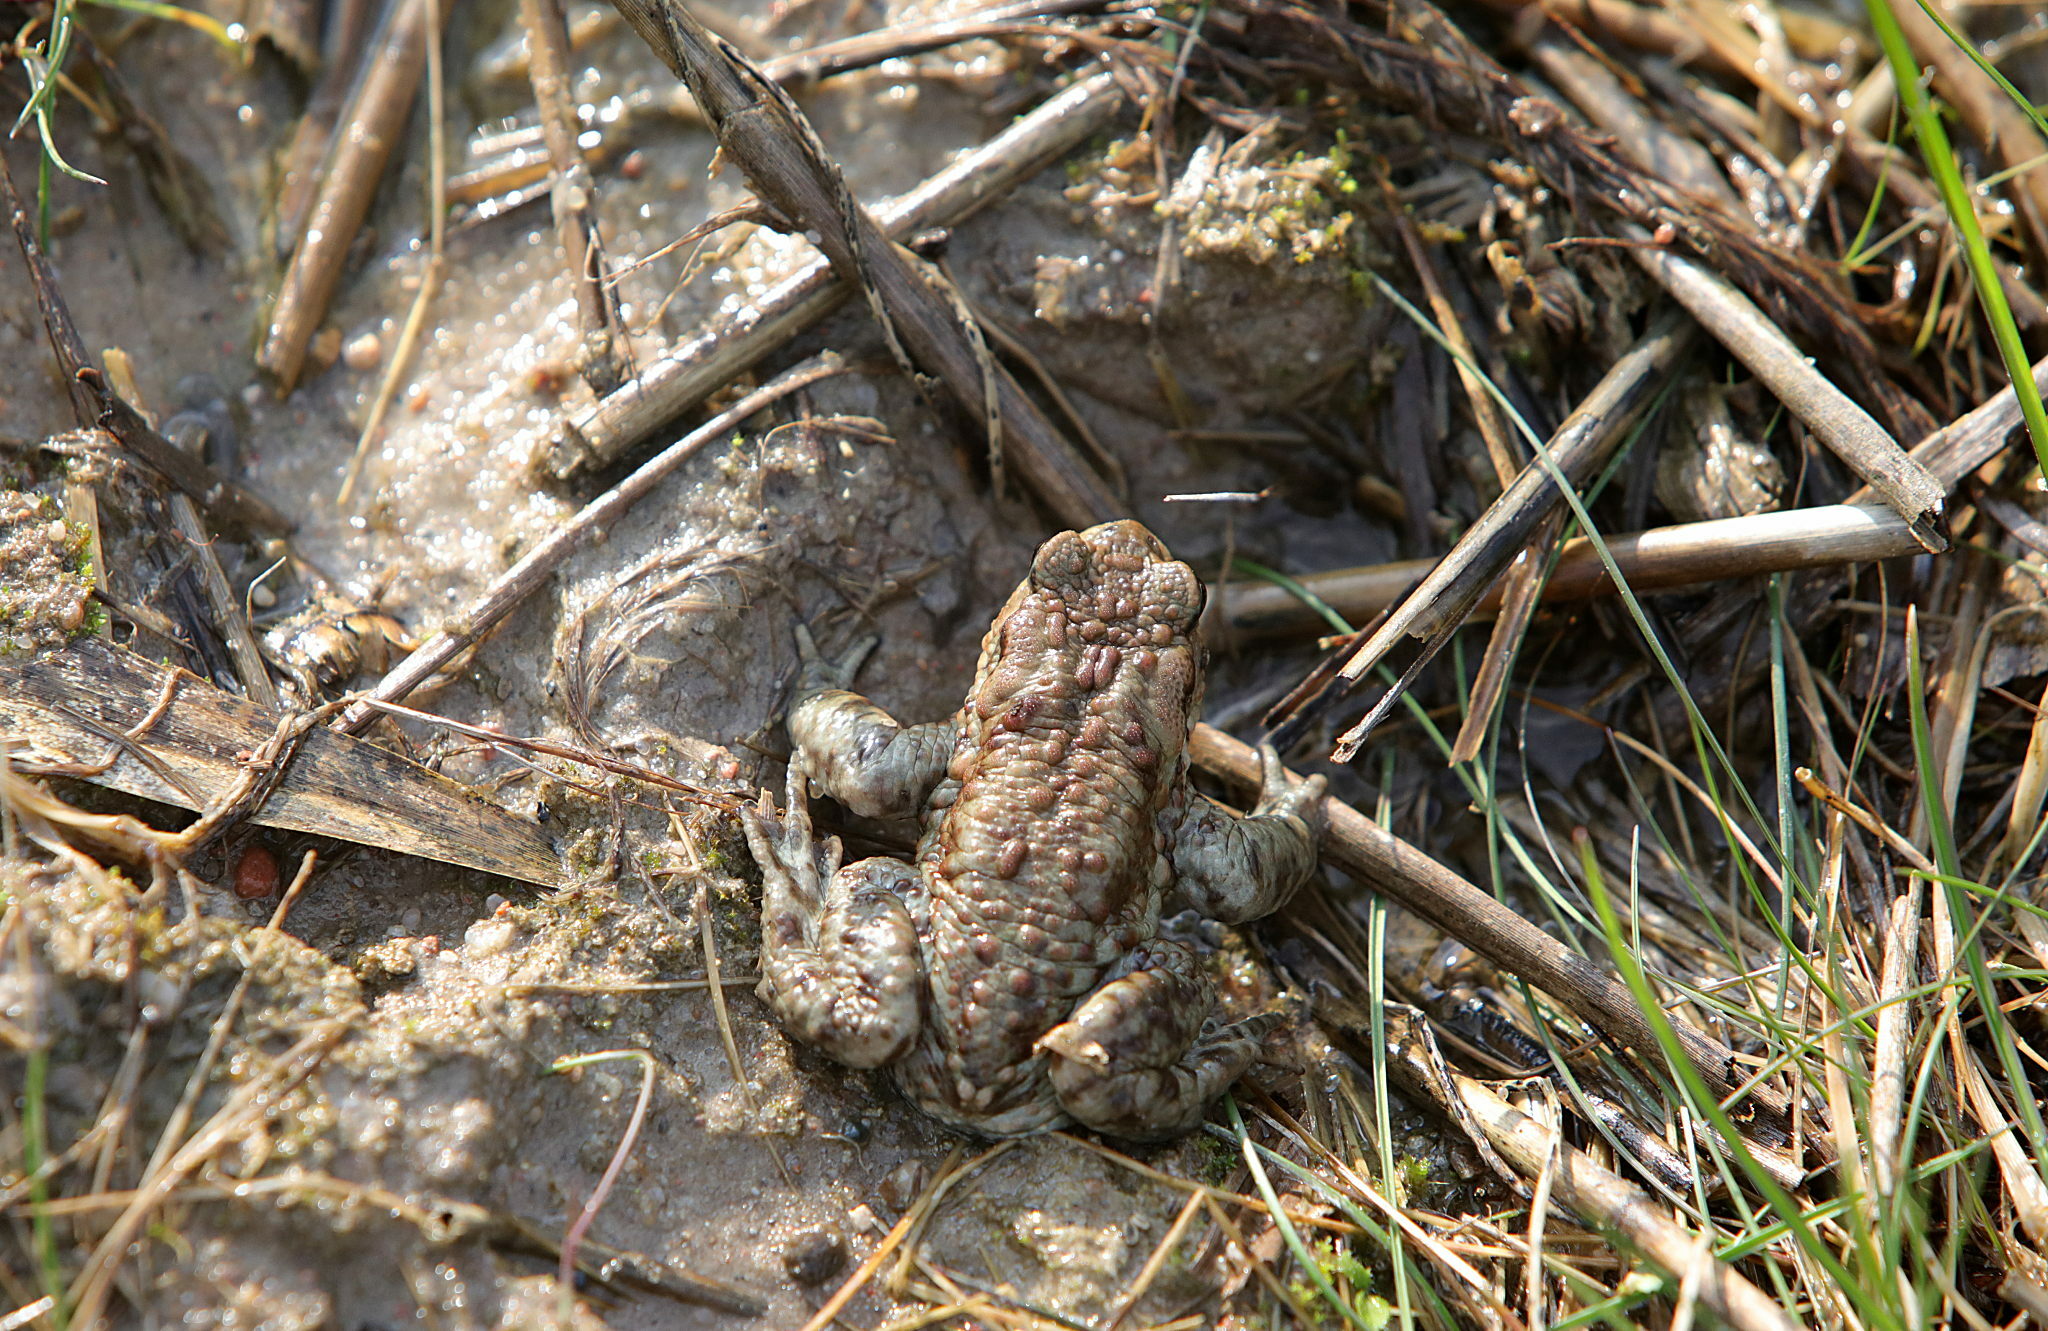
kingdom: Animalia
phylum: Chordata
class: Amphibia
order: Anura
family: Bufonidae
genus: Bufo
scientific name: Bufo bufo
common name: Common toad
